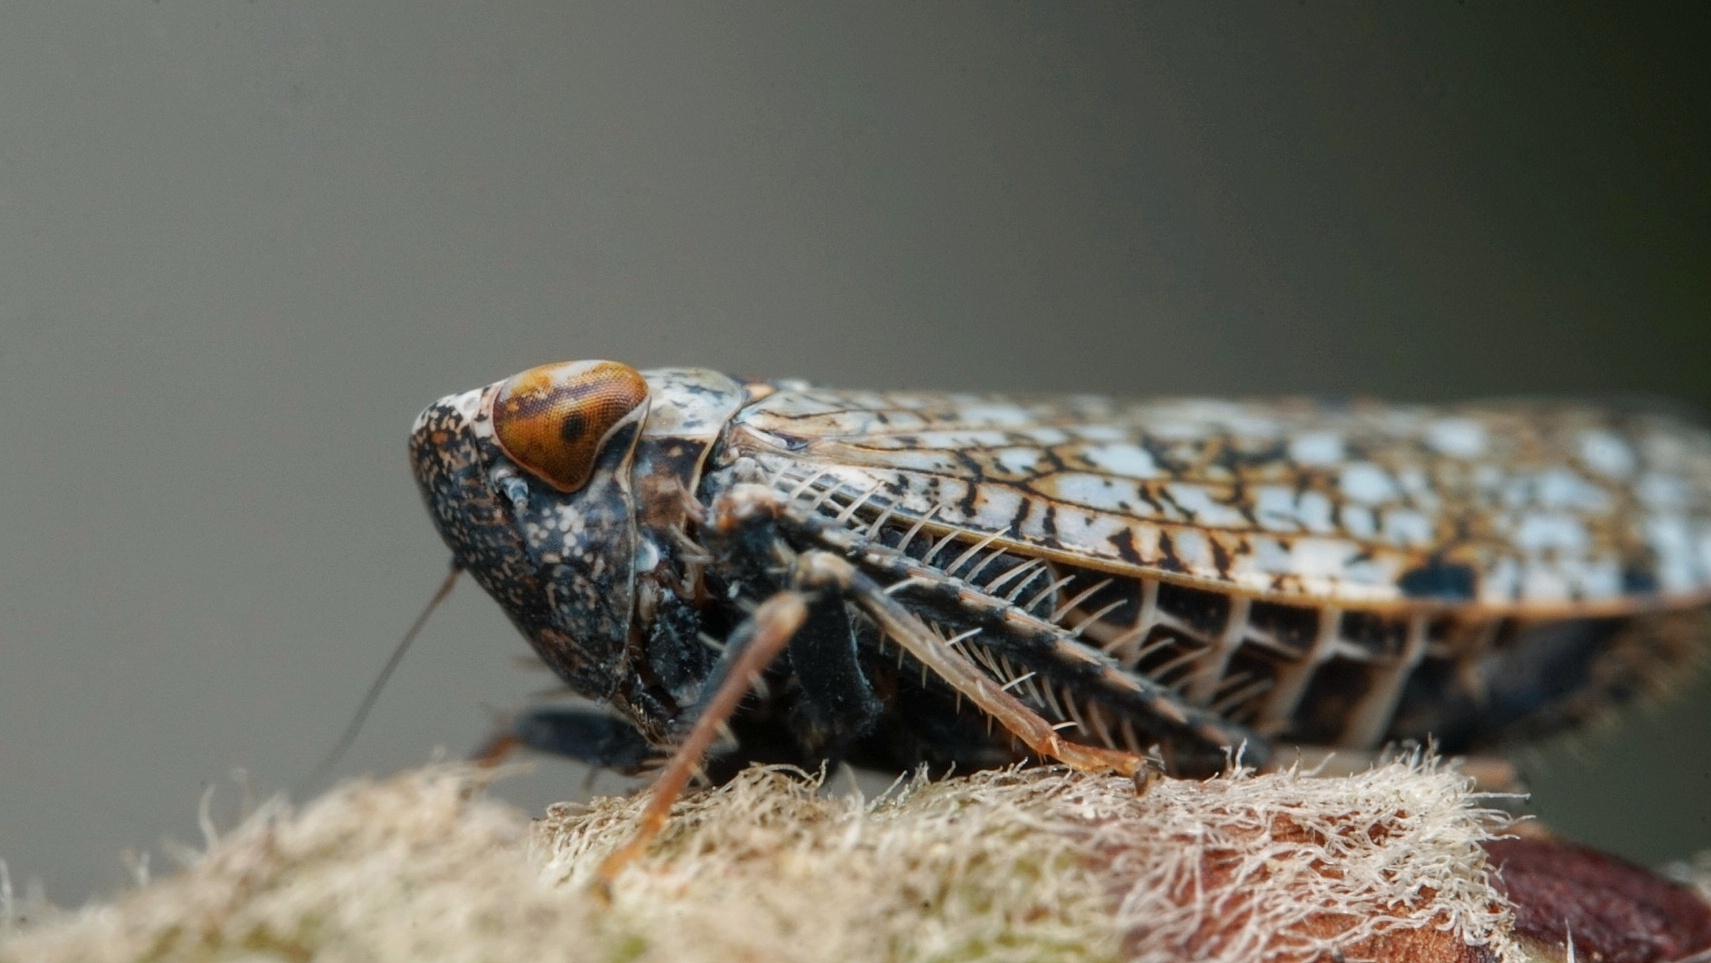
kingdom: Animalia
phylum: Arthropoda
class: Insecta
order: Hemiptera
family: Cicadellidae
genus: Orientus
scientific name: Orientus ishidae
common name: Japanese leafhopper
